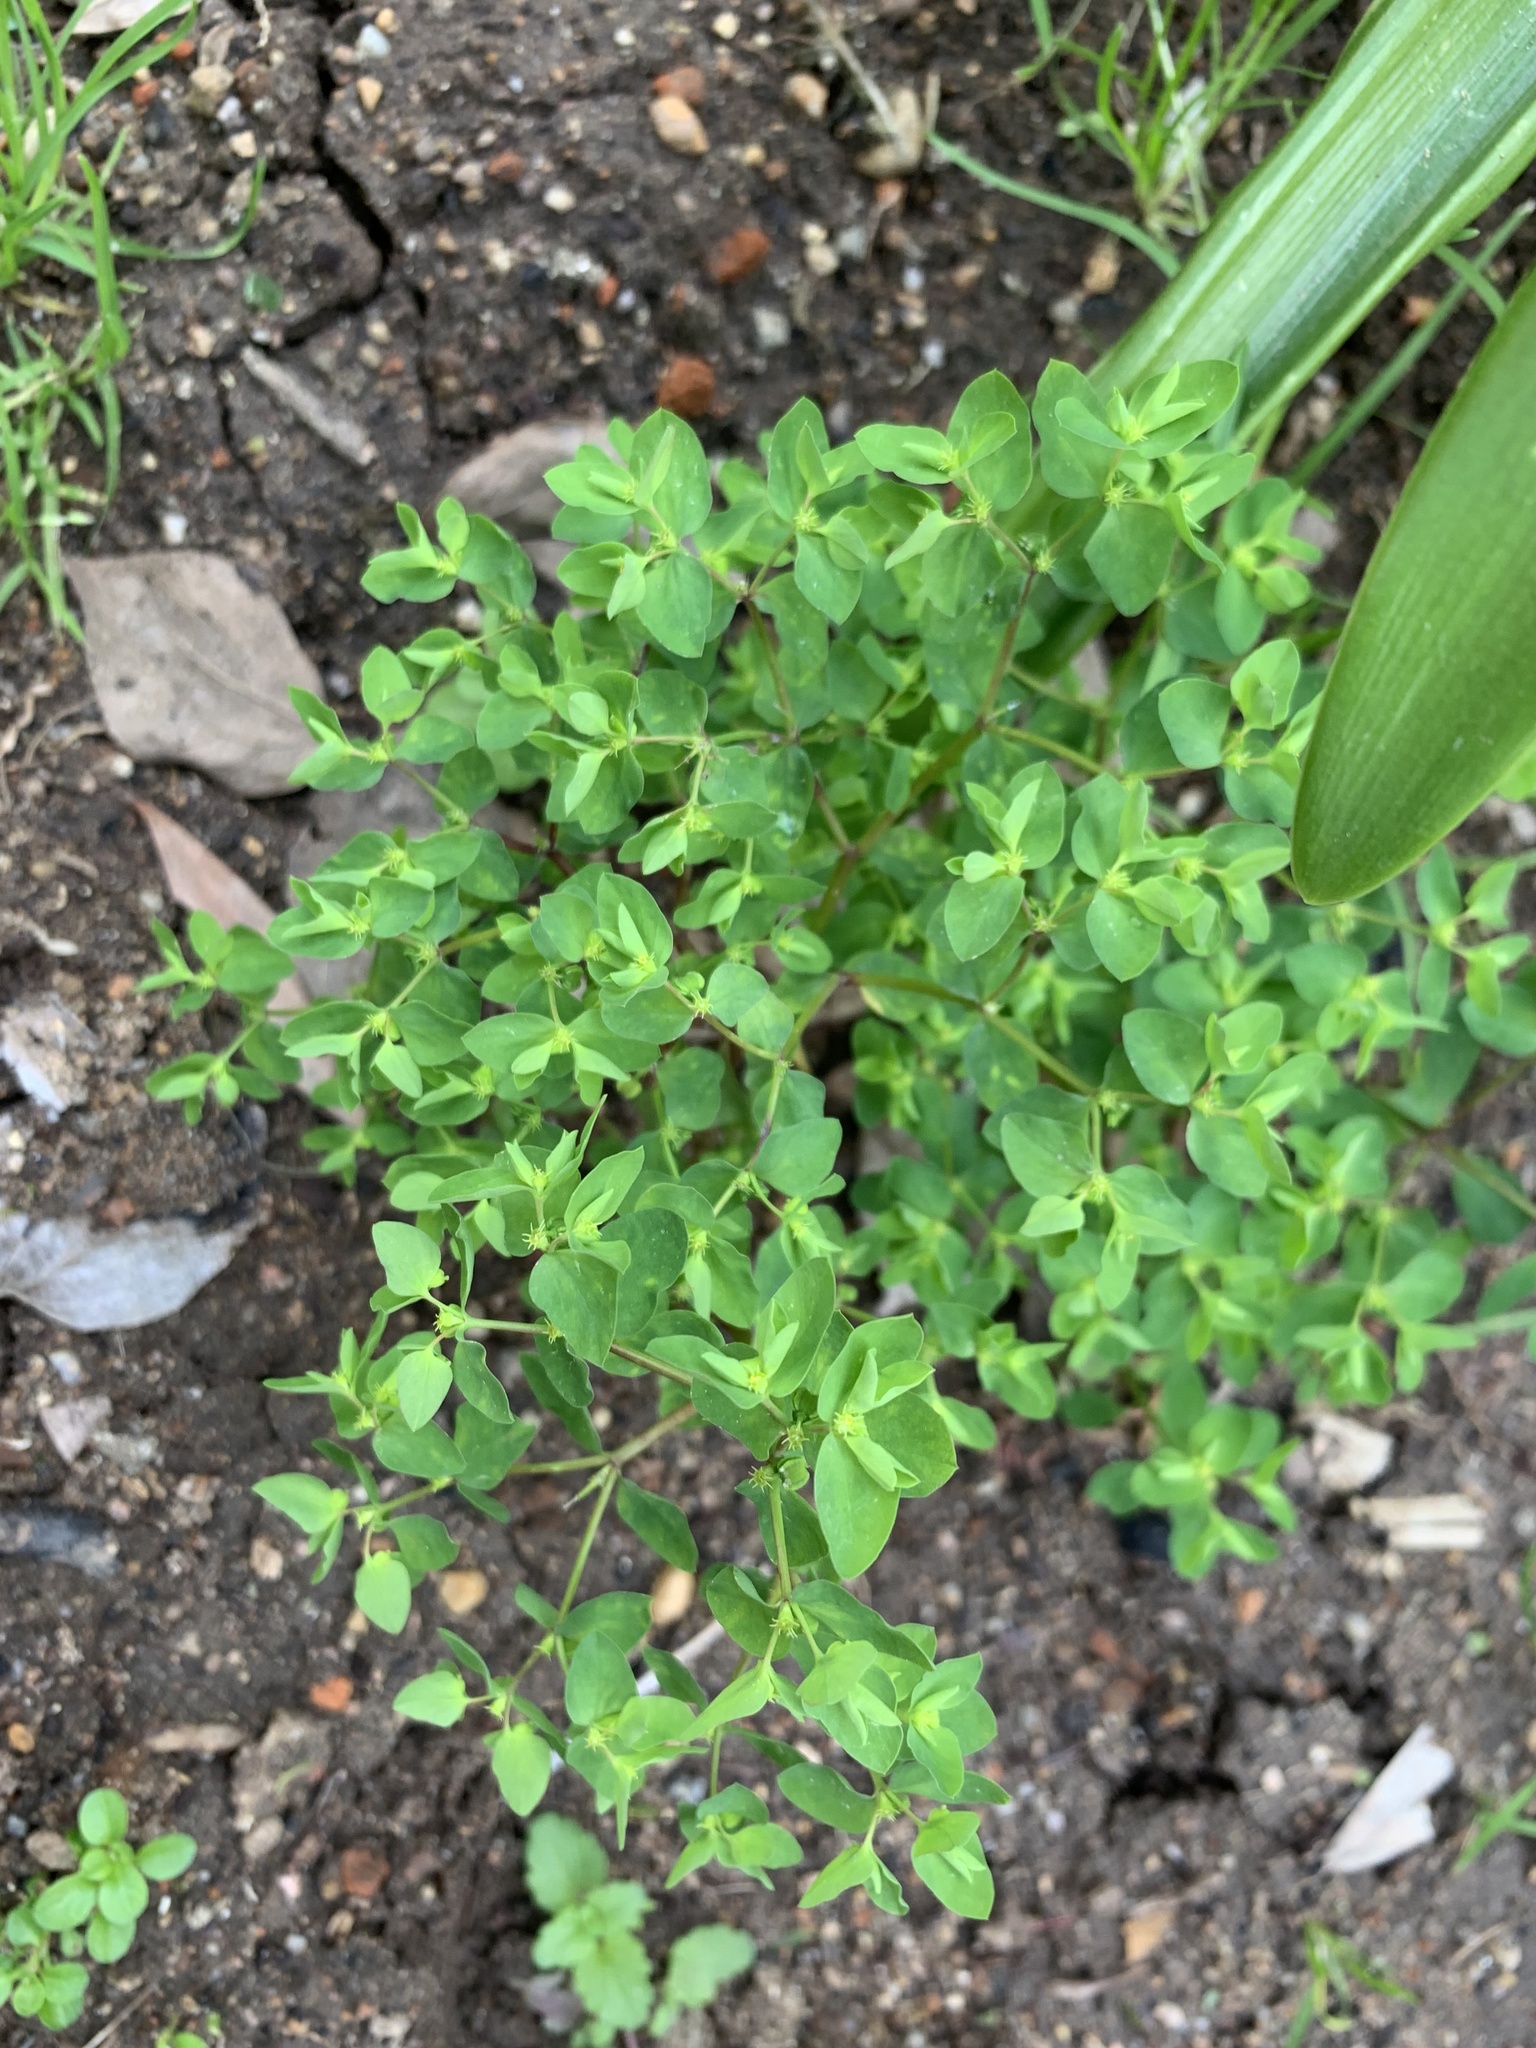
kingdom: Plantae
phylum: Tracheophyta
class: Magnoliopsida
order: Malpighiales
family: Euphorbiaceae
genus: Euphorbia
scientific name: Euphorbia peplus
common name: Petty spurge
